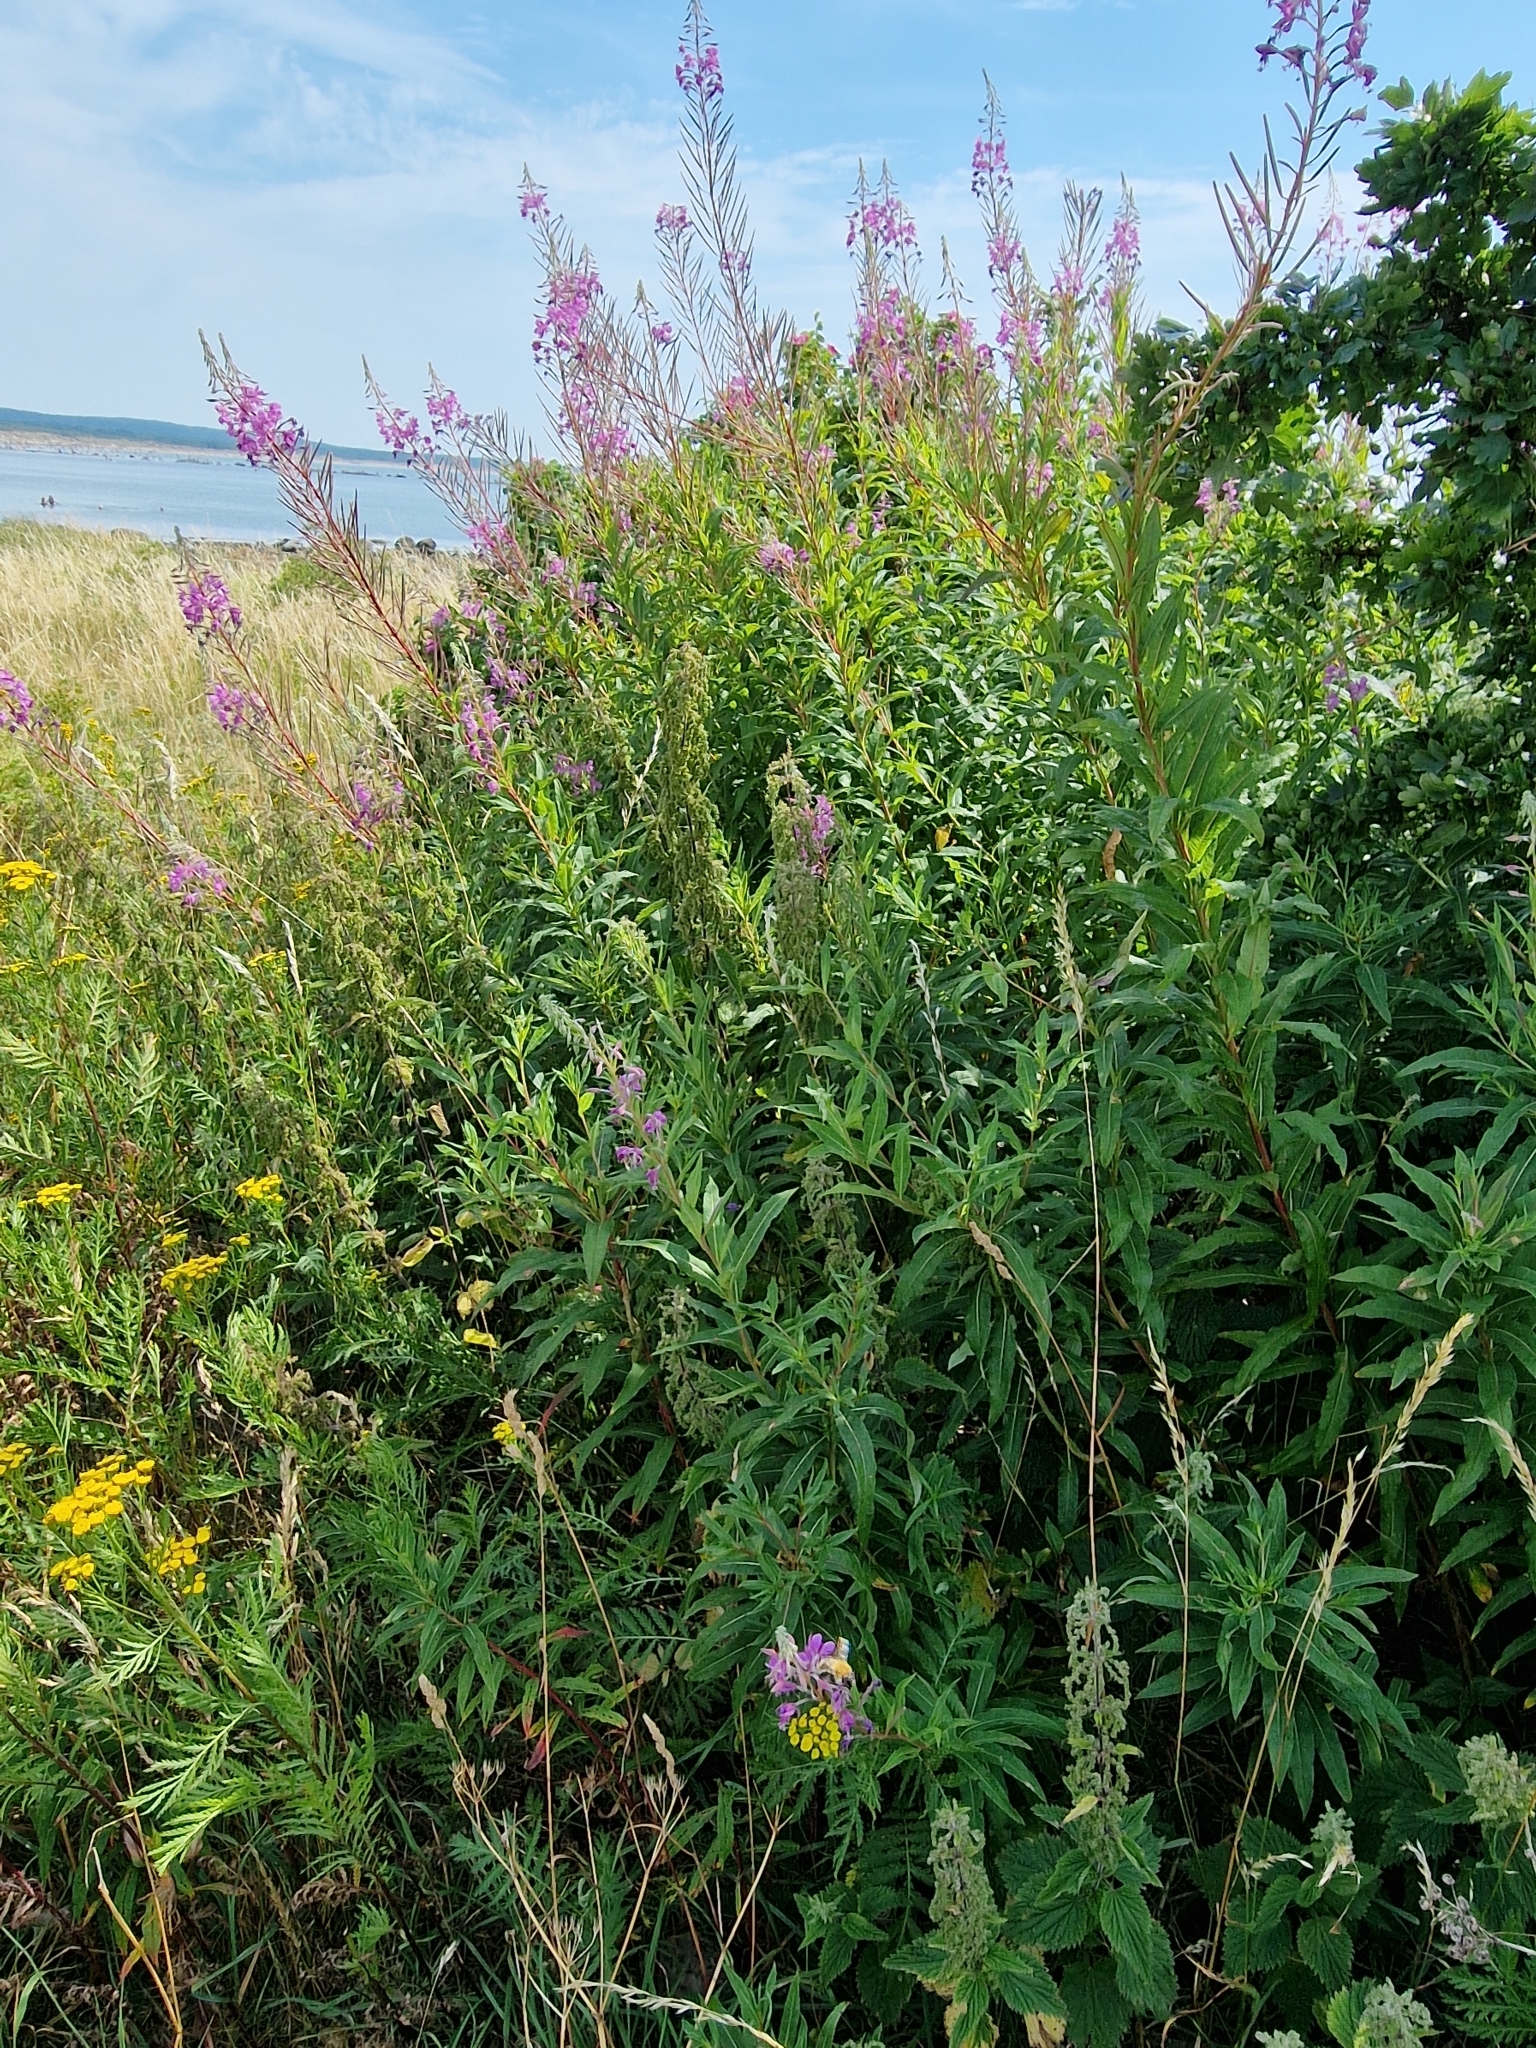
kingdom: Plantae
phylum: Tracheophyta
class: Magnoliopsida
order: Myrtales
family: Onagraceae
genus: Chamaenerion
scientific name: Chamaenerion angustifolium
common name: Fireweed
